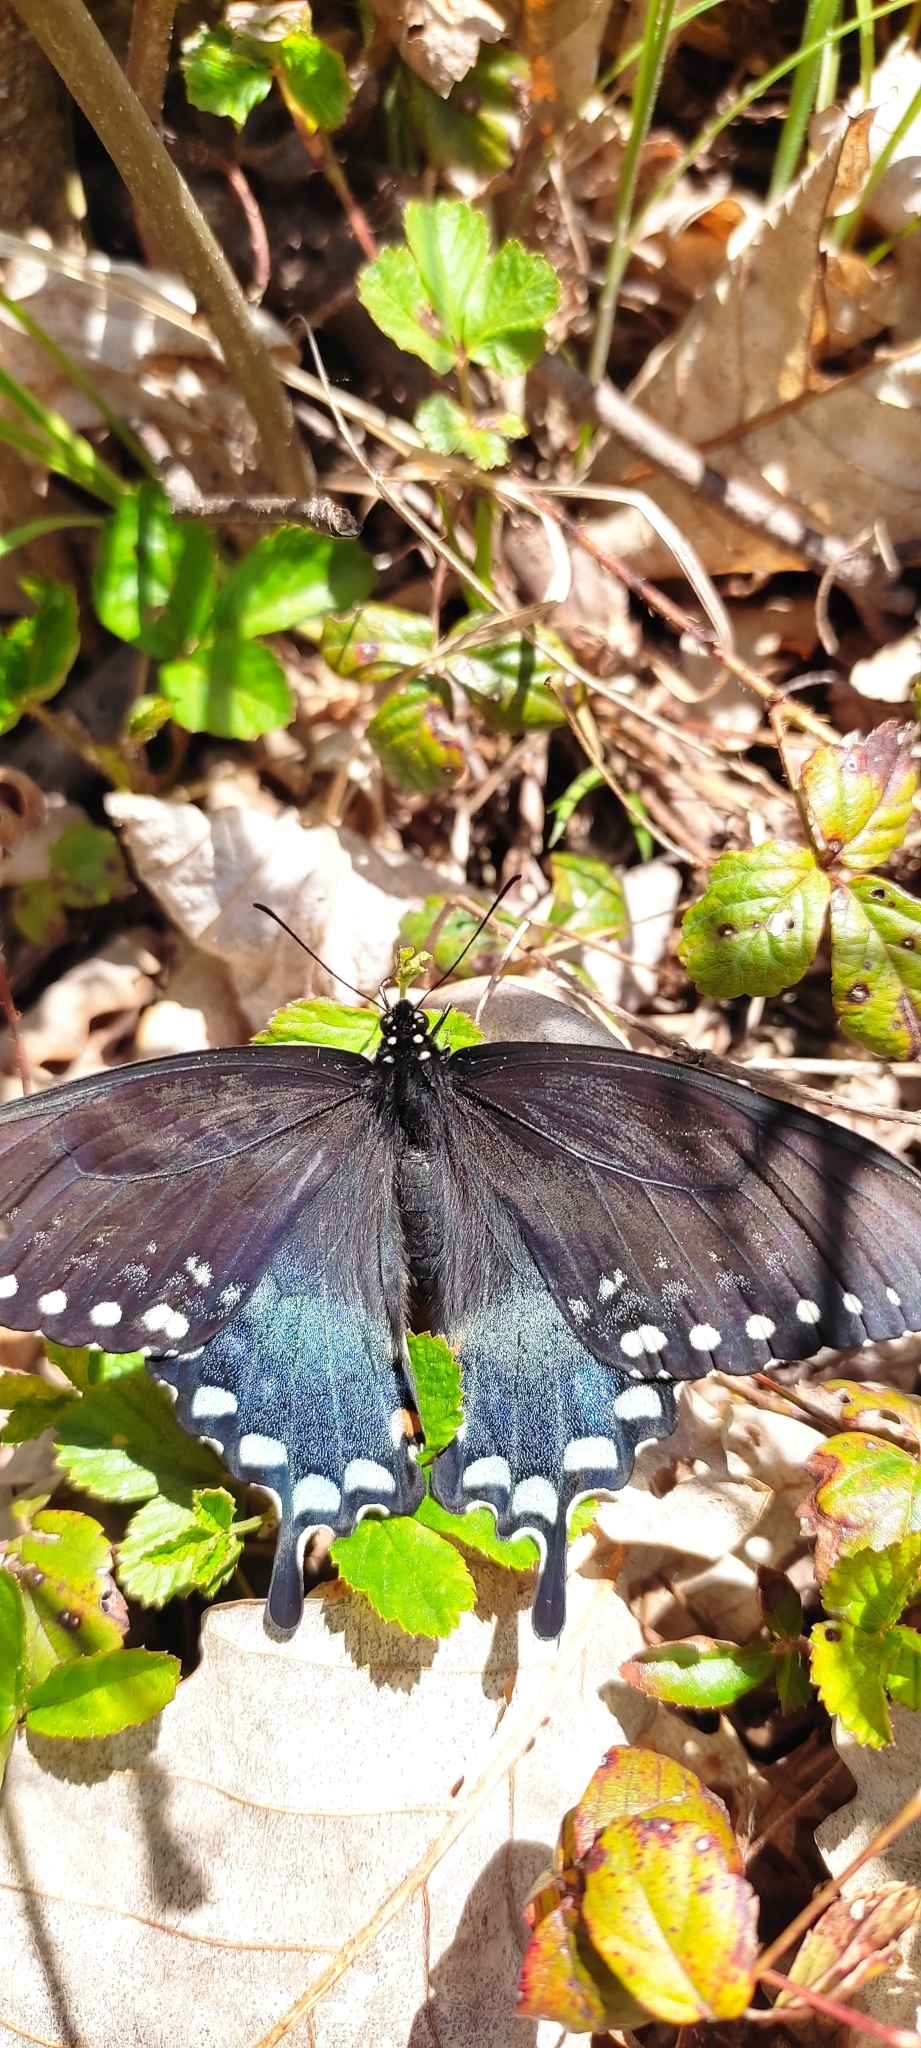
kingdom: Animalia
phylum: Arthropoda
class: Insecta
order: Lepidoptera
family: Papilionidae
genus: Papilio
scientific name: Papilio troilus
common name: Spicebush swallowtail
